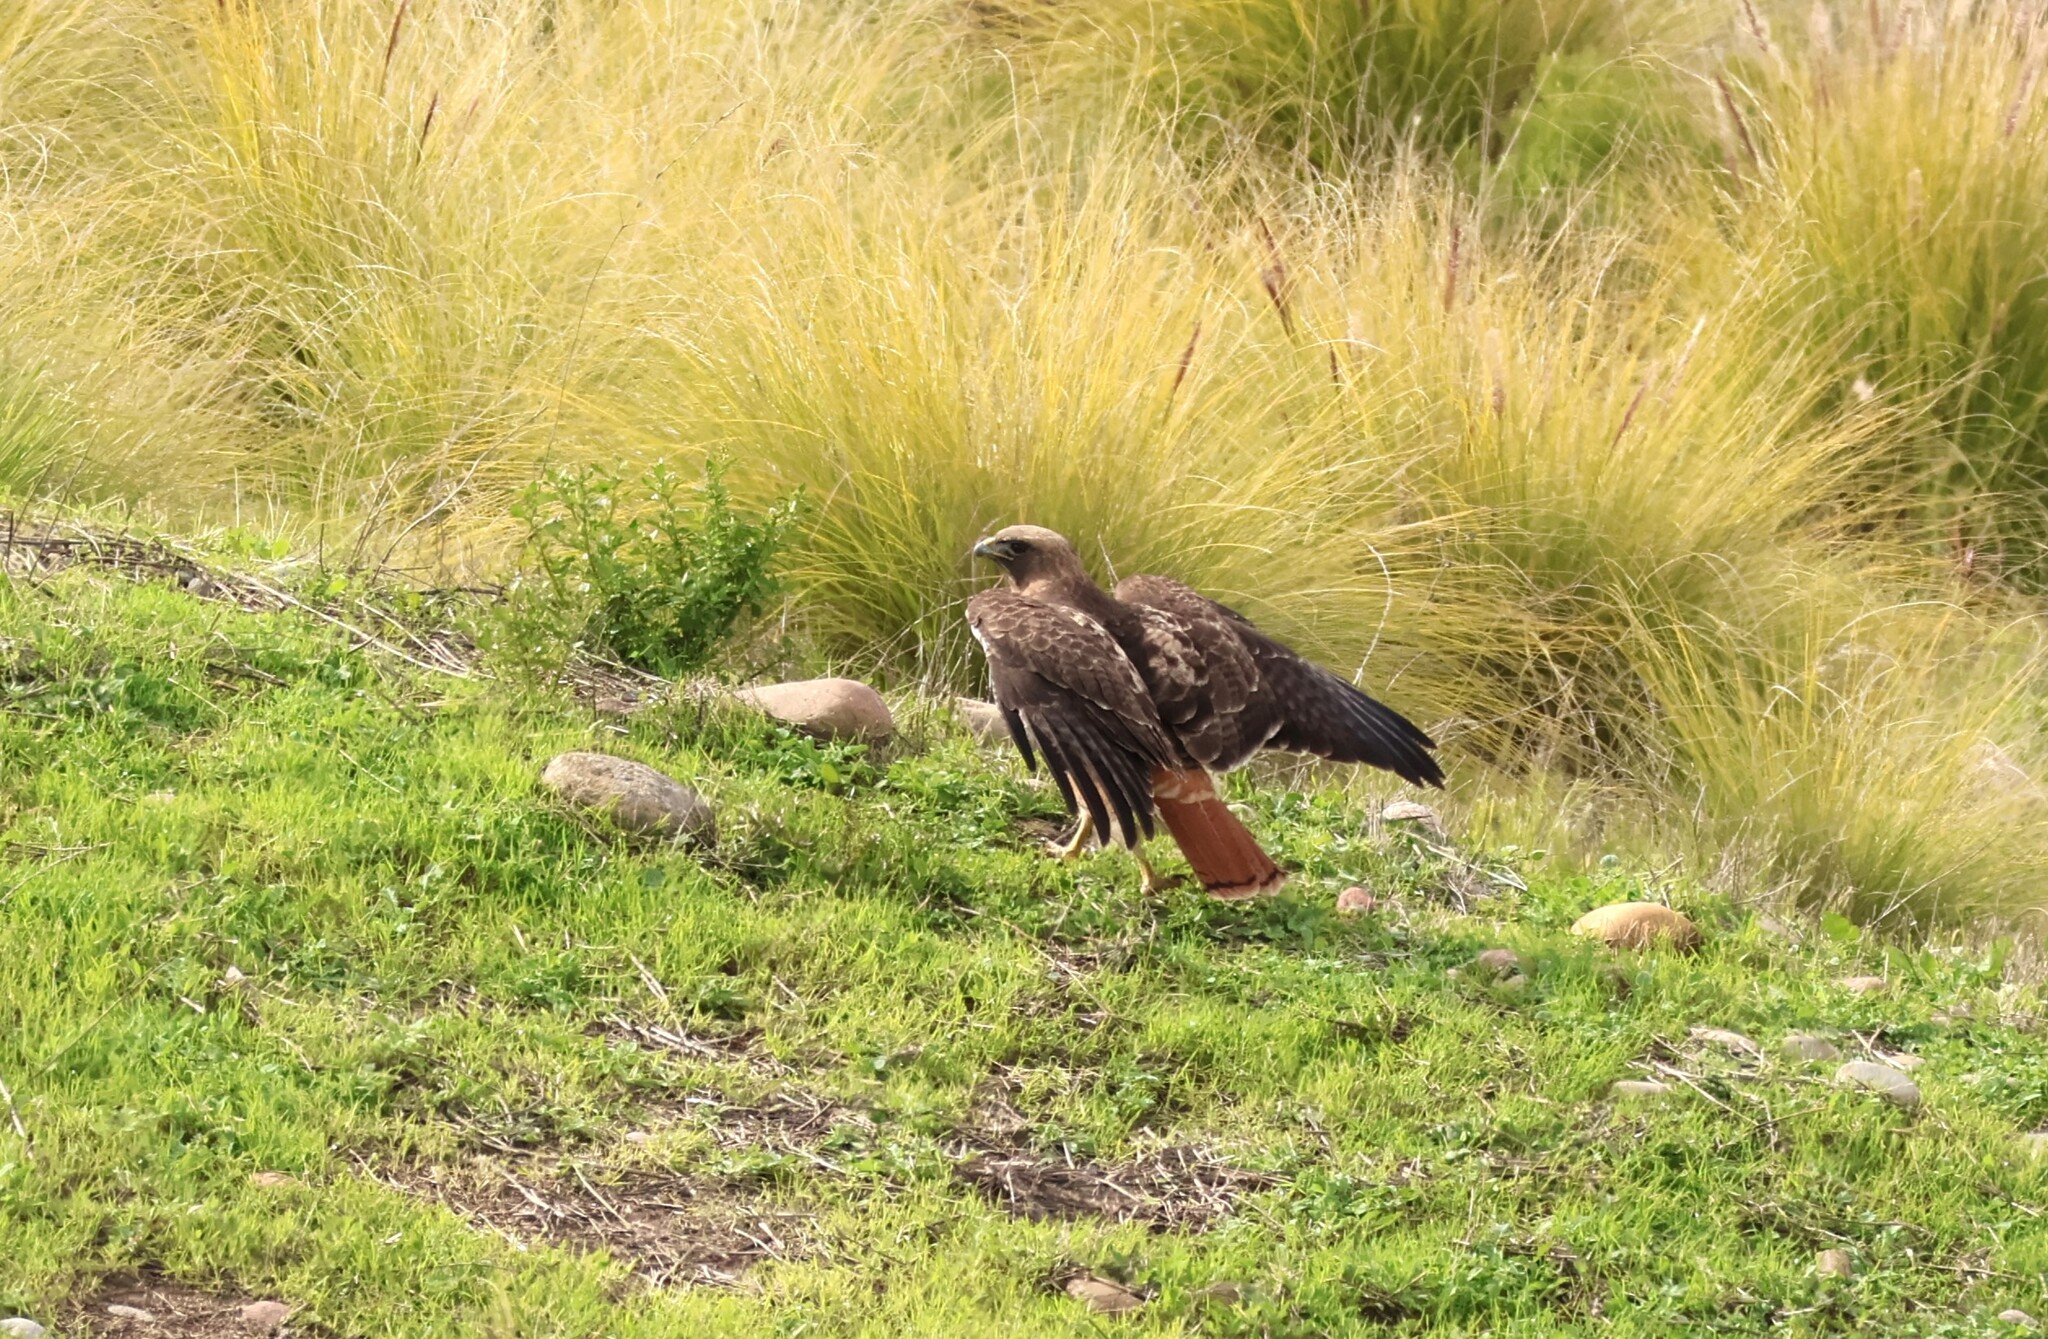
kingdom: Animalia
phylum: Chordata
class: Aves
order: Accipitriformes
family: Accipitridae
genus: Buteo
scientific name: Buteo jamaicensis
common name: Red-tailed hawk
